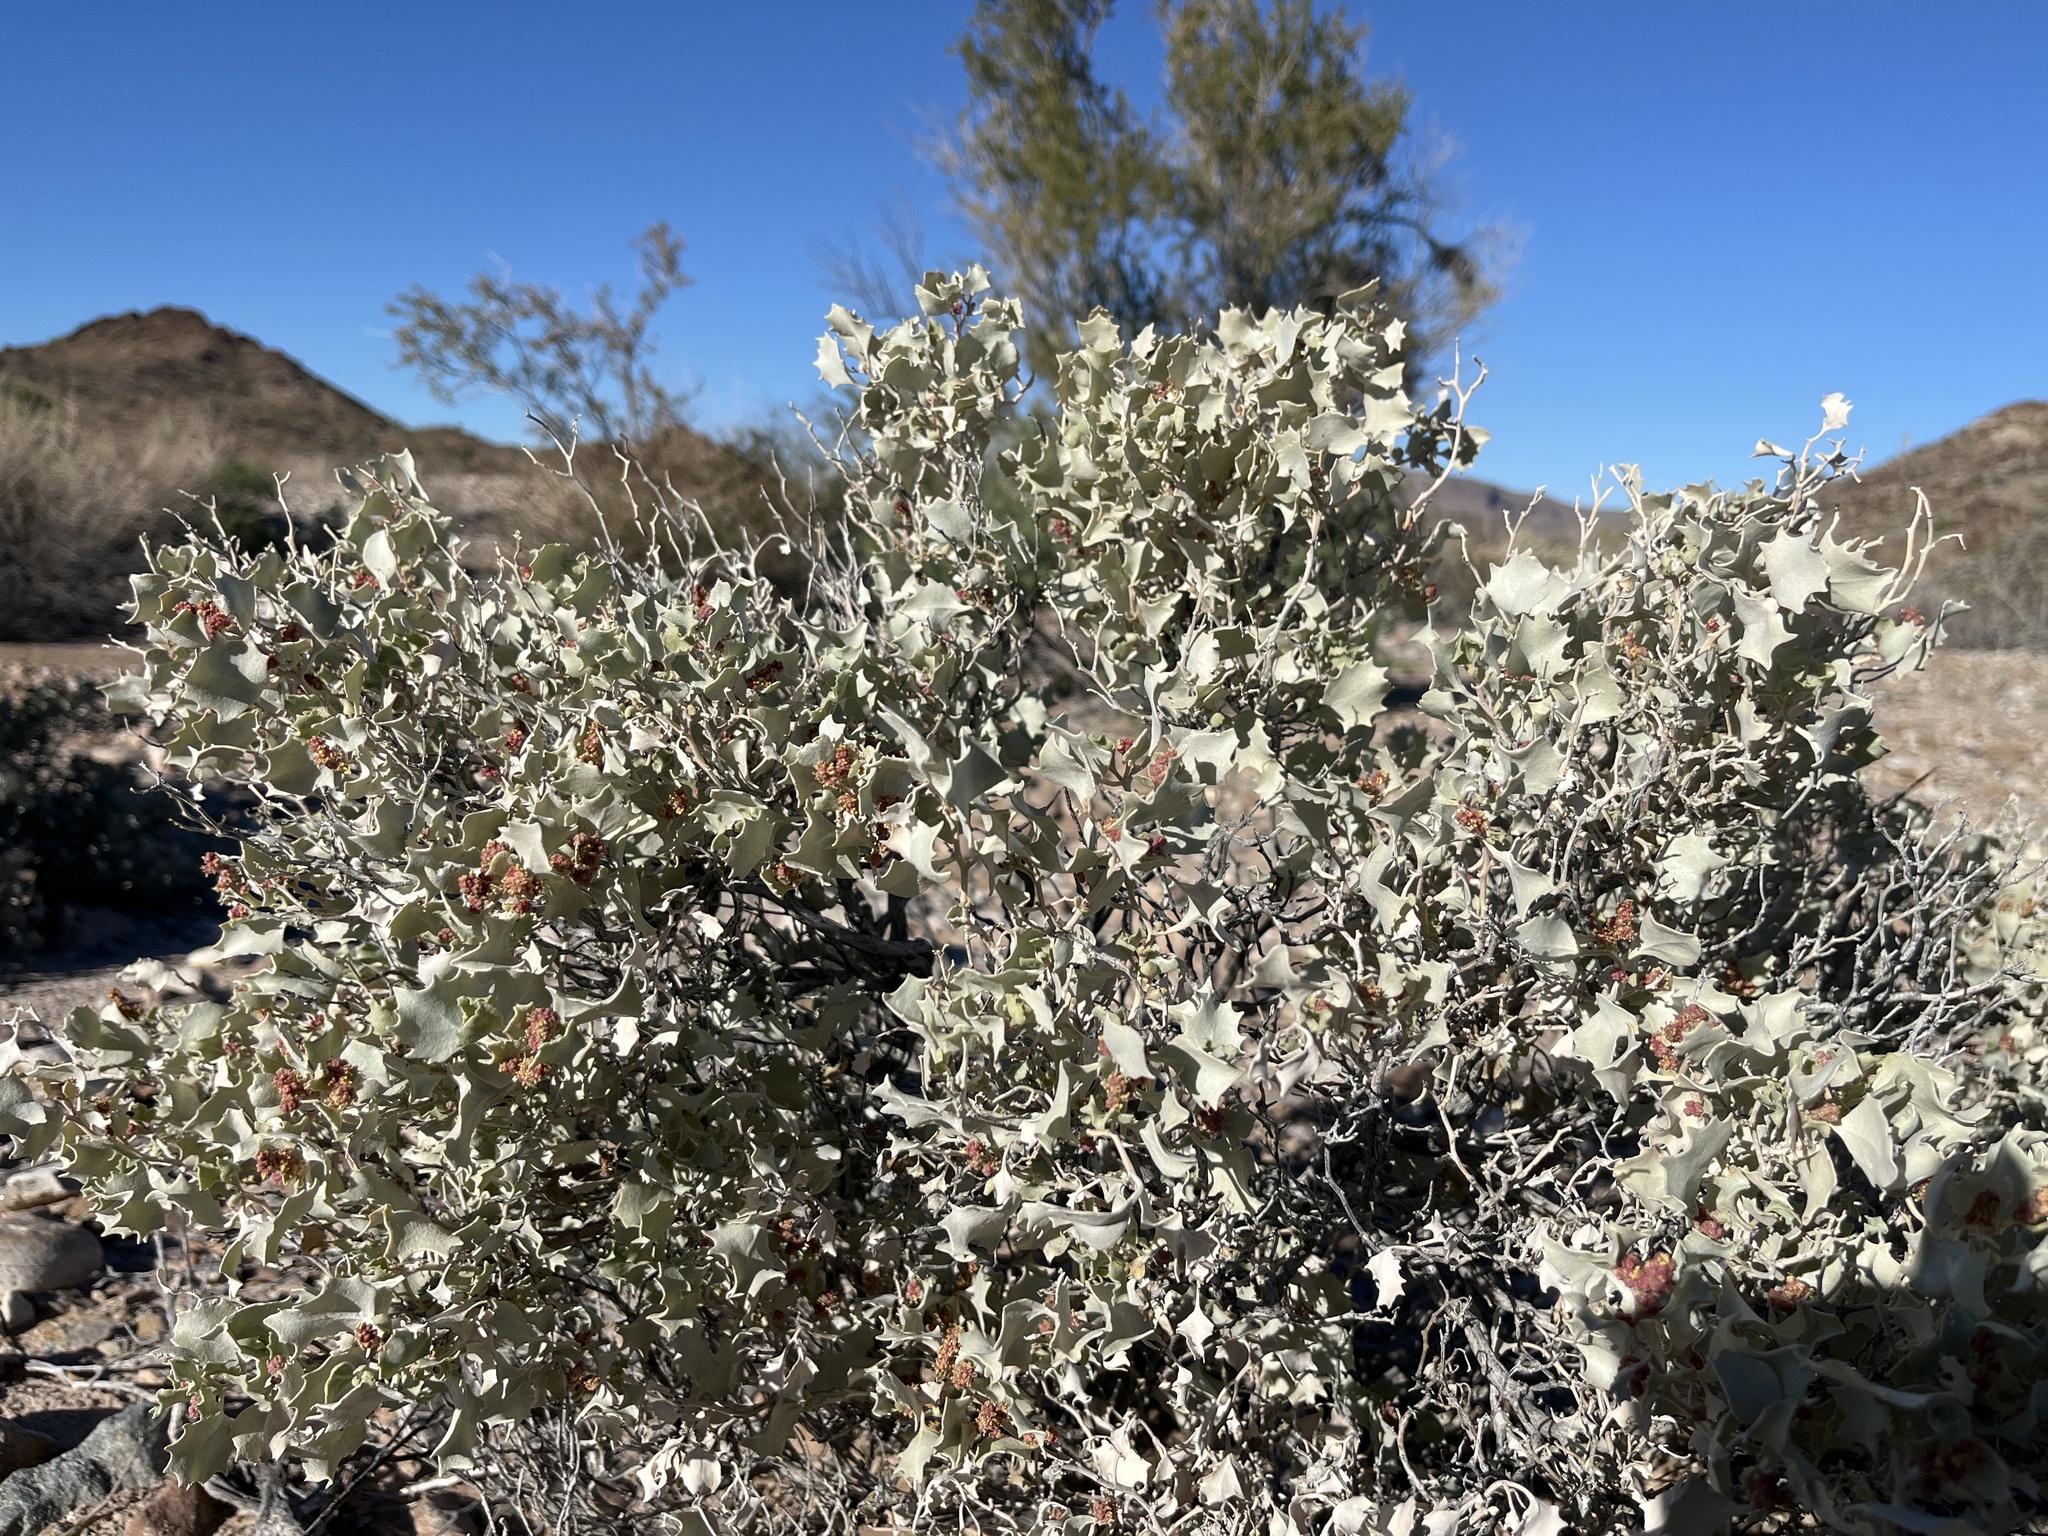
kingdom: Plantae
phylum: Tracheophyta
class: Magnoliopsida
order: Caryophyllales
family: Amaranthaceae
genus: Atriplex
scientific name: Atriplex hymenelytra
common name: Desert-holly
